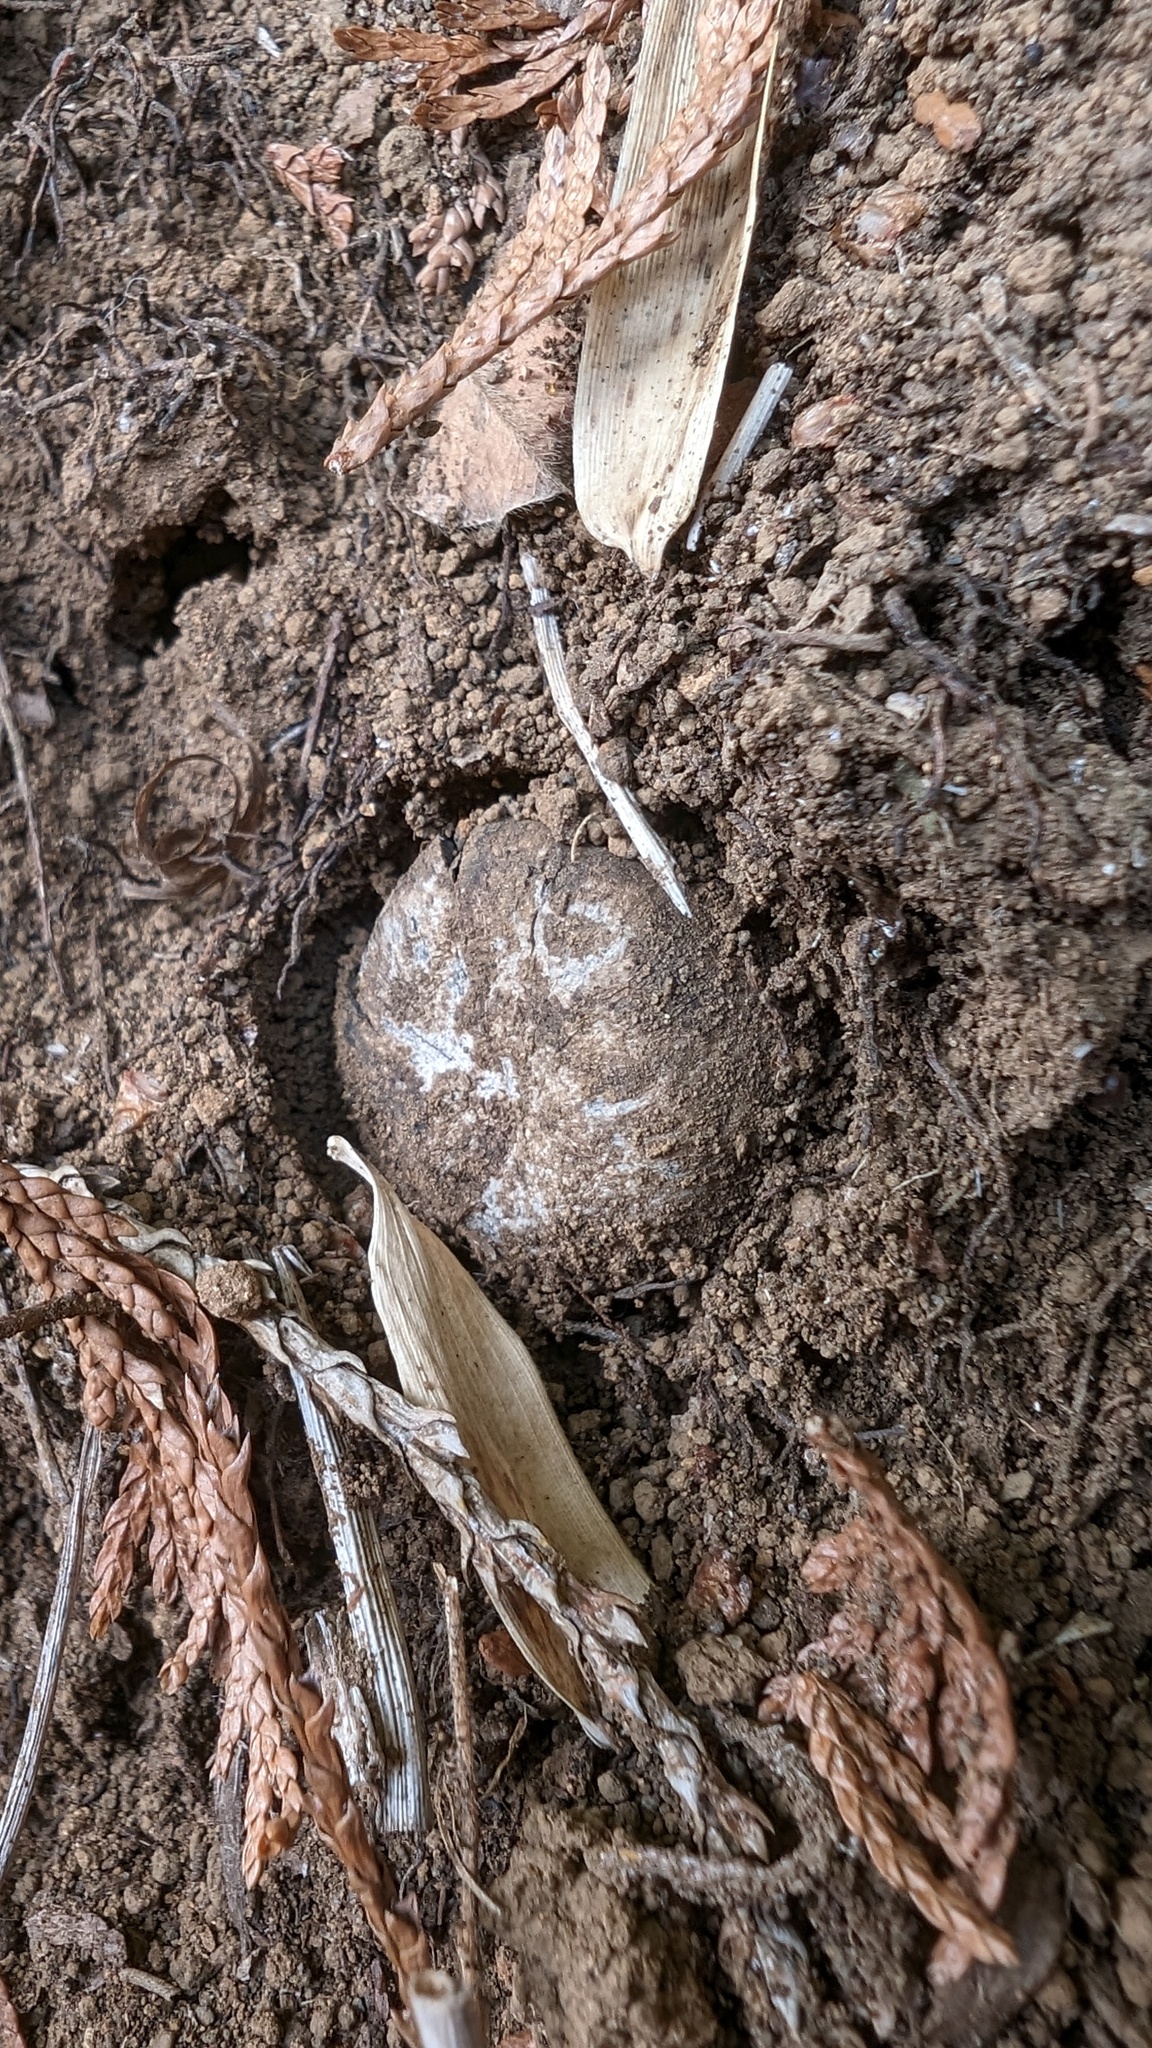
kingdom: Fungi
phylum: Basidiomycota
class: Agaricomycetes
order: Boletales
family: Diplocystidiaceae
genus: Astraeus
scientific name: Astraeus hygrometricus
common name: Barometer earthstar
